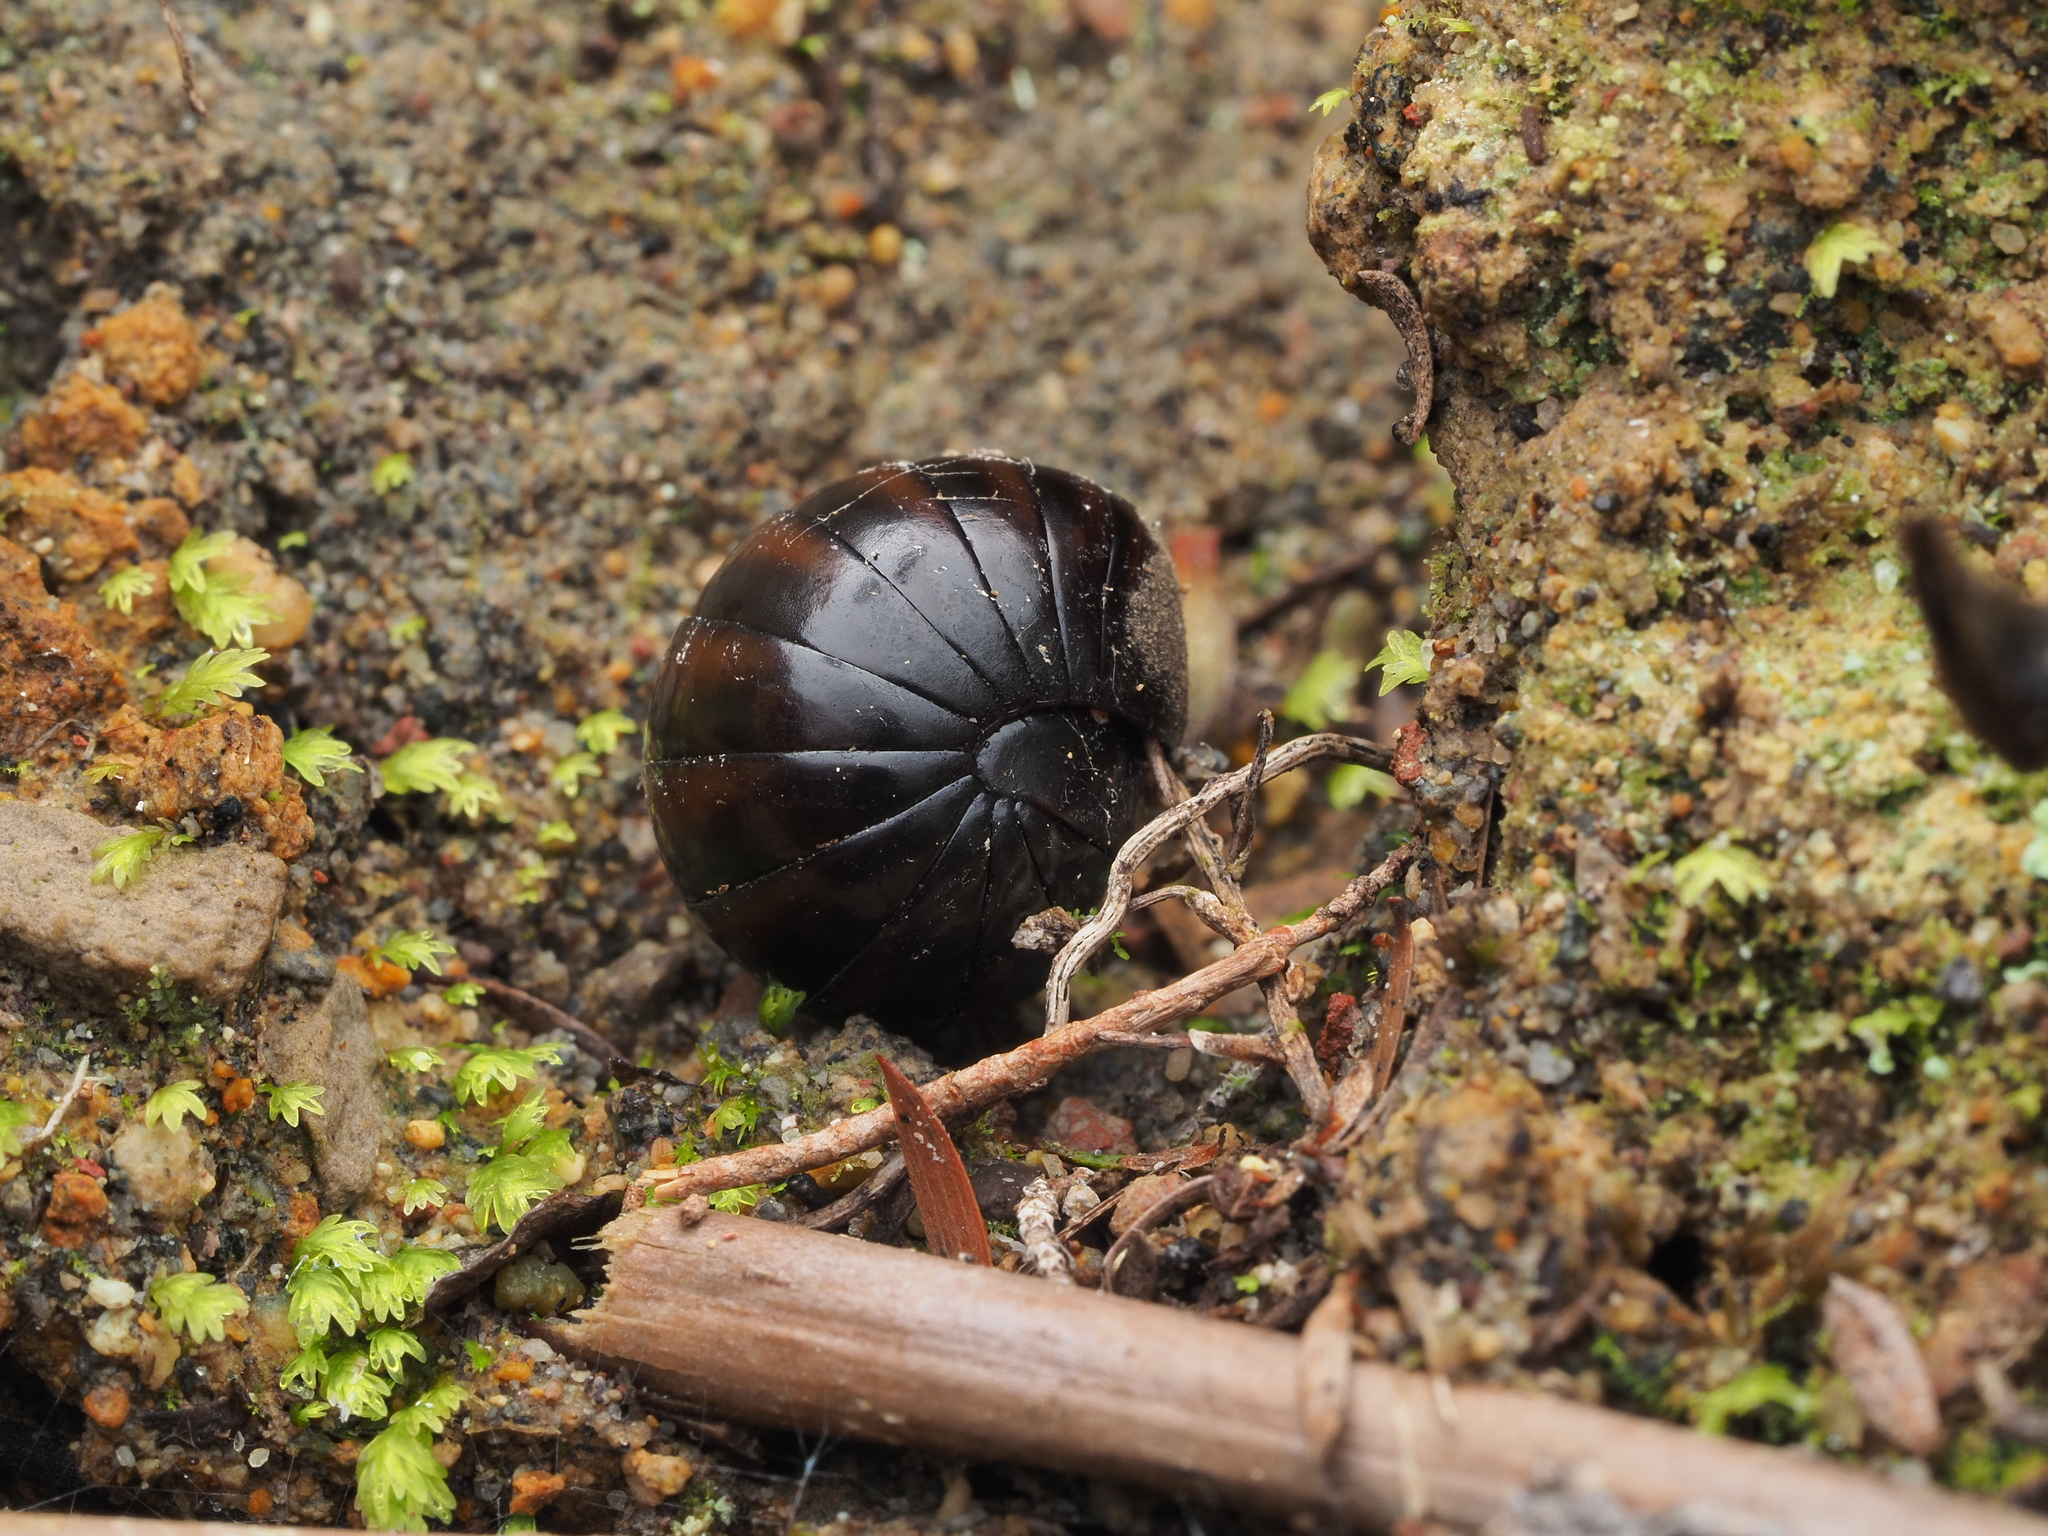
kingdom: Animalia
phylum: Arthropoda
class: Diplopoda
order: Sphaerotheriida
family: Procyliosomatidae
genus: Procyliosoma
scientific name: Procyliosoma tuberculatum
